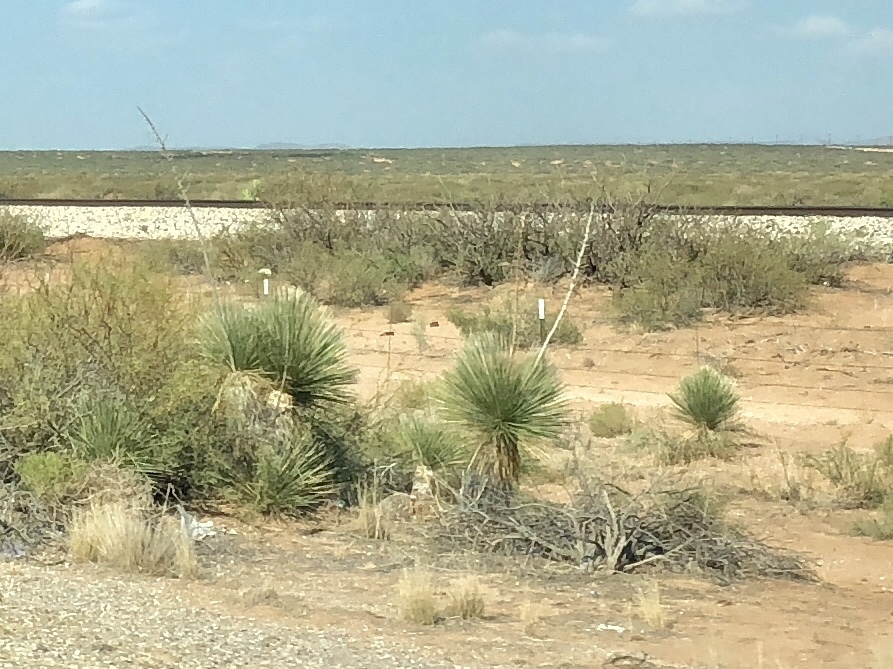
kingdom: Plantae
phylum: Tracheophyta
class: Liliopsida
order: Asparagales
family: Asparagaceae
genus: Yucca
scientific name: Yucca elata
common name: Palmella
